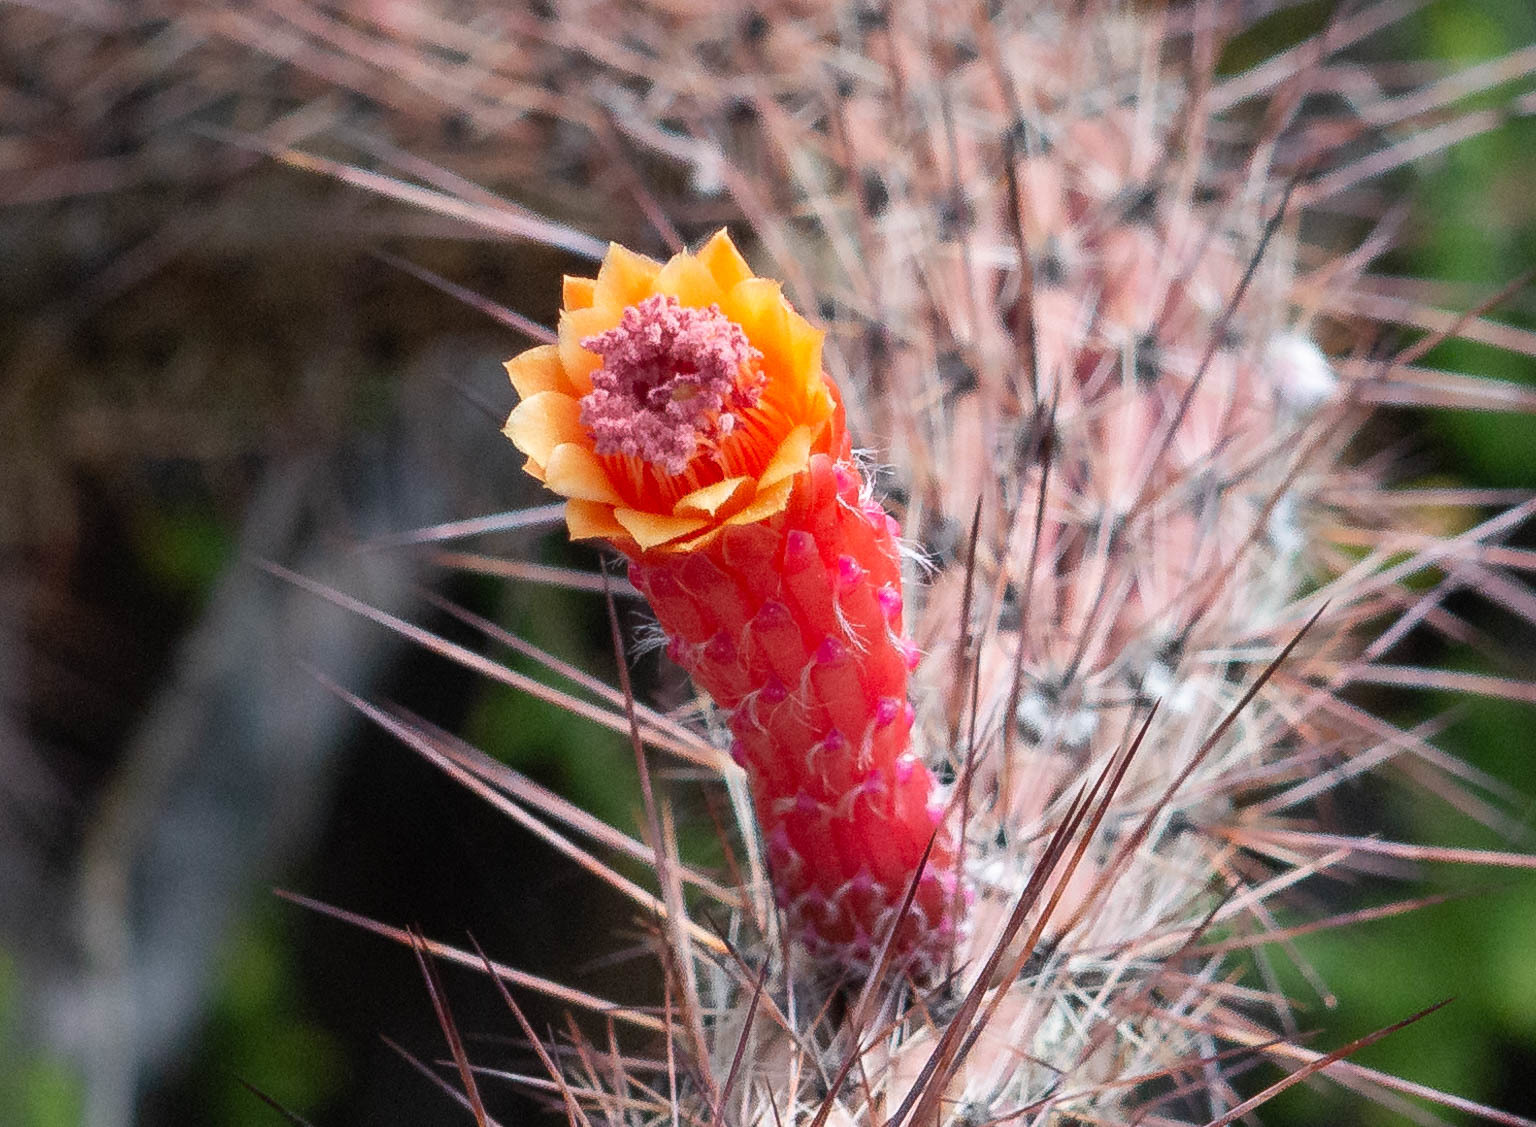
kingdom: Plantae
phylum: Tracheophyta
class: Magnoliopsida
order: Caryophyllales
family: Cactaceae
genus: Cleistocactus
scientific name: Cleistocactus baumannii
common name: Scarlet-bugler
